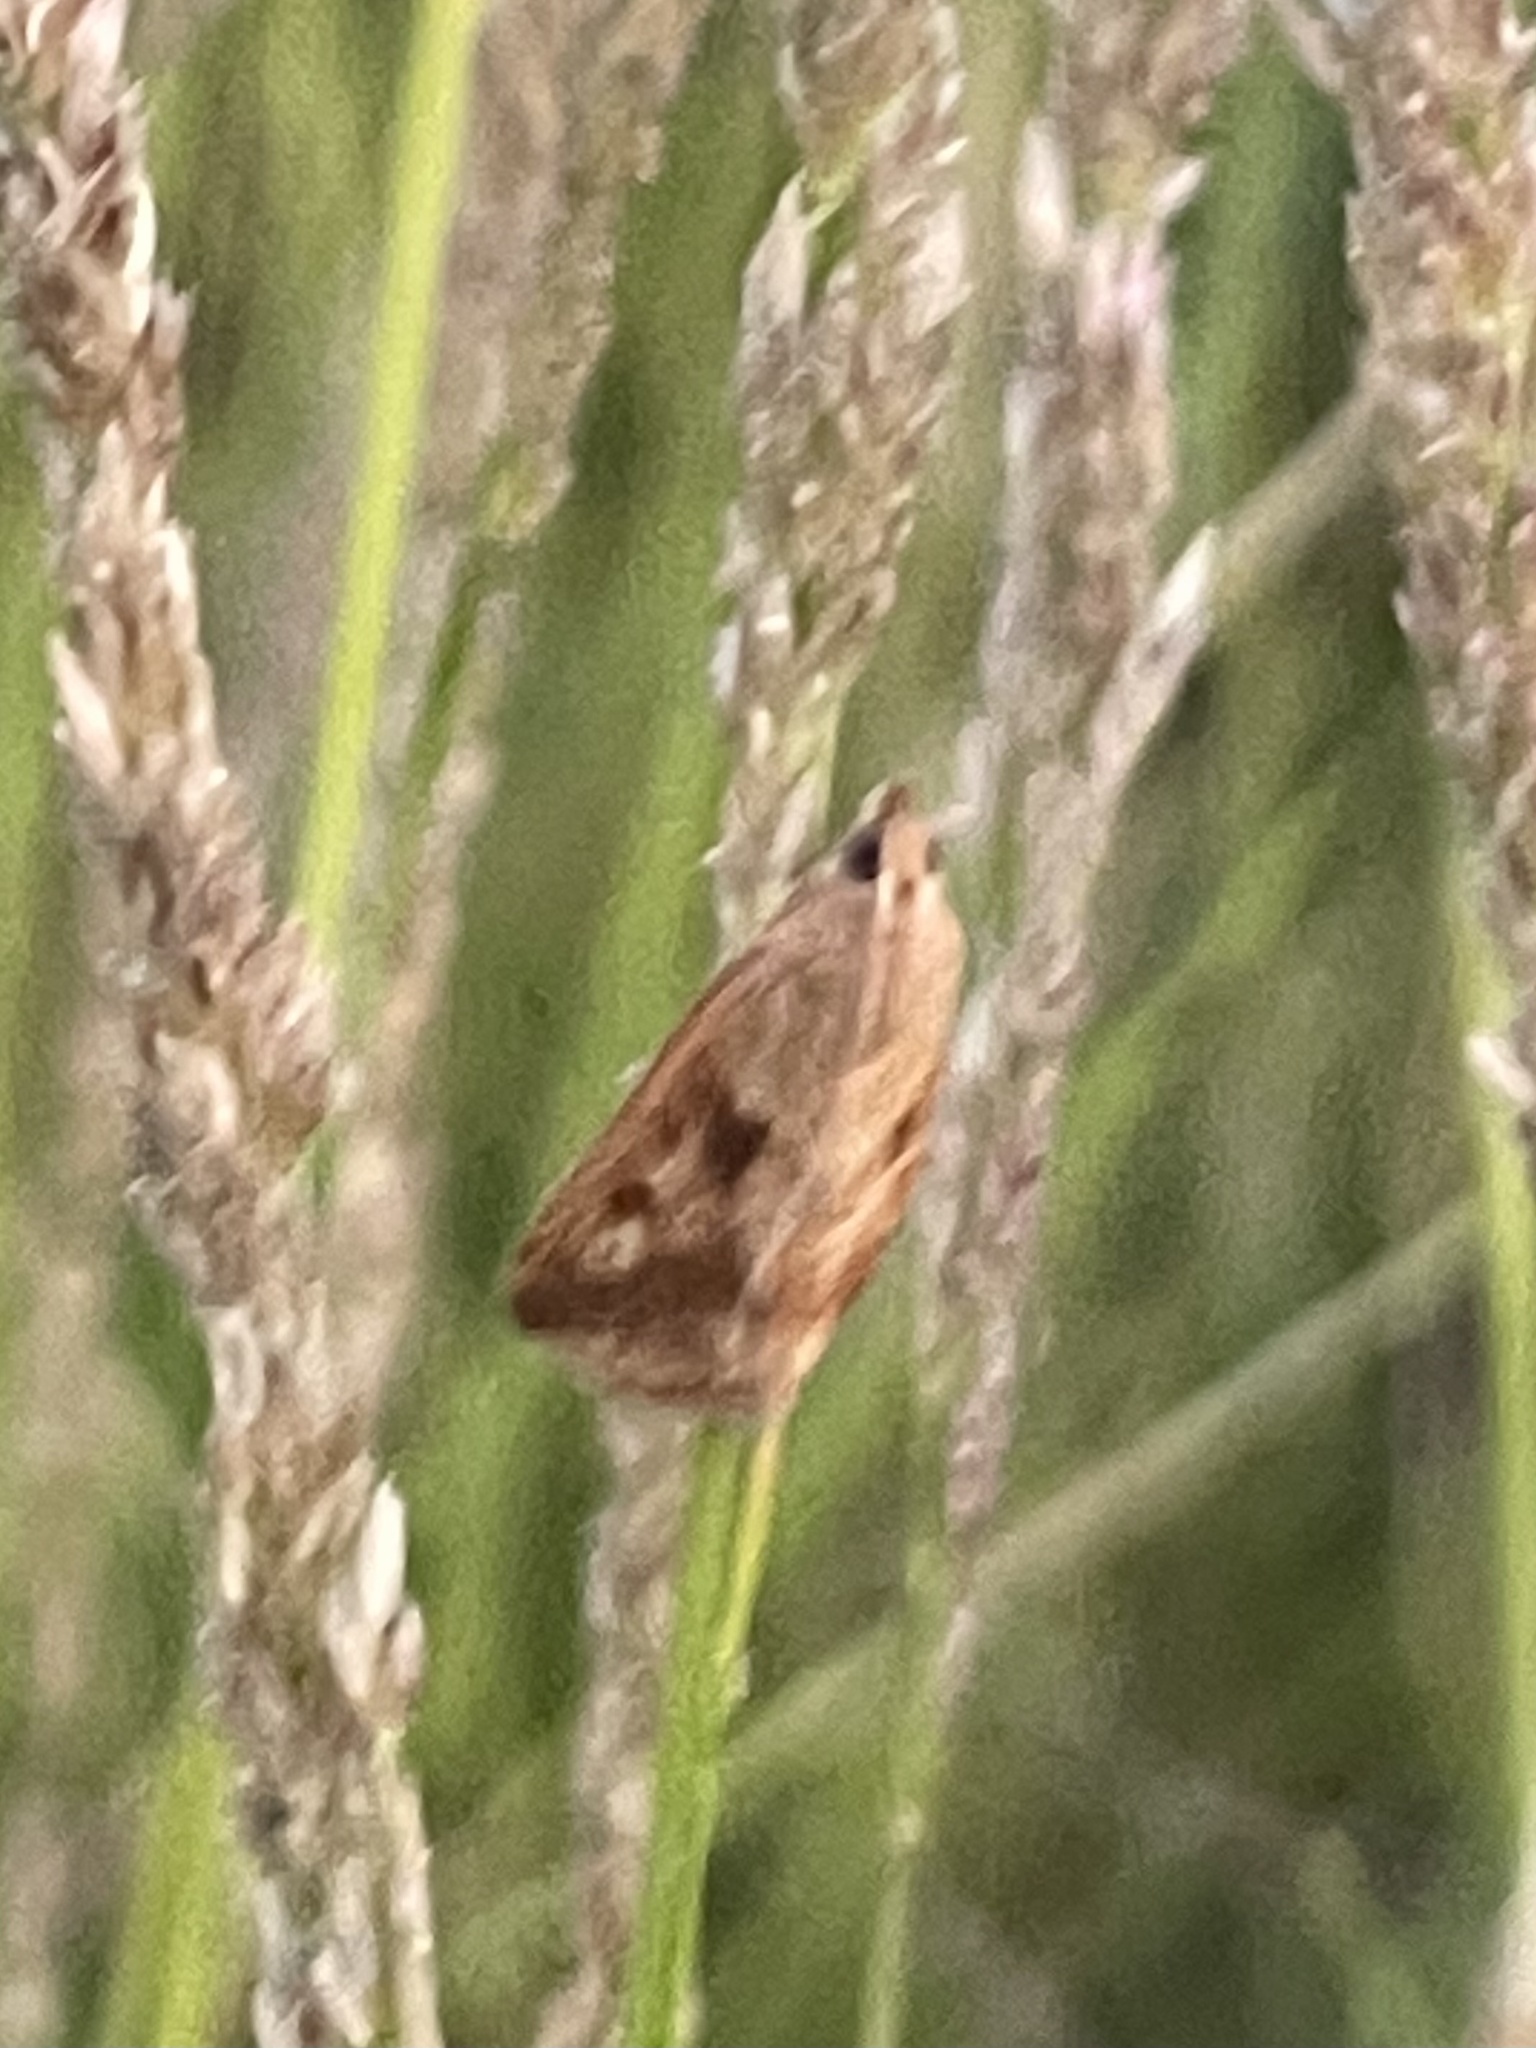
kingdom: Animalia
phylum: Arthropoda
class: Insecta
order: Lepidoptera
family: Crambidae
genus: Achyra
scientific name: Achyra bifidalis
